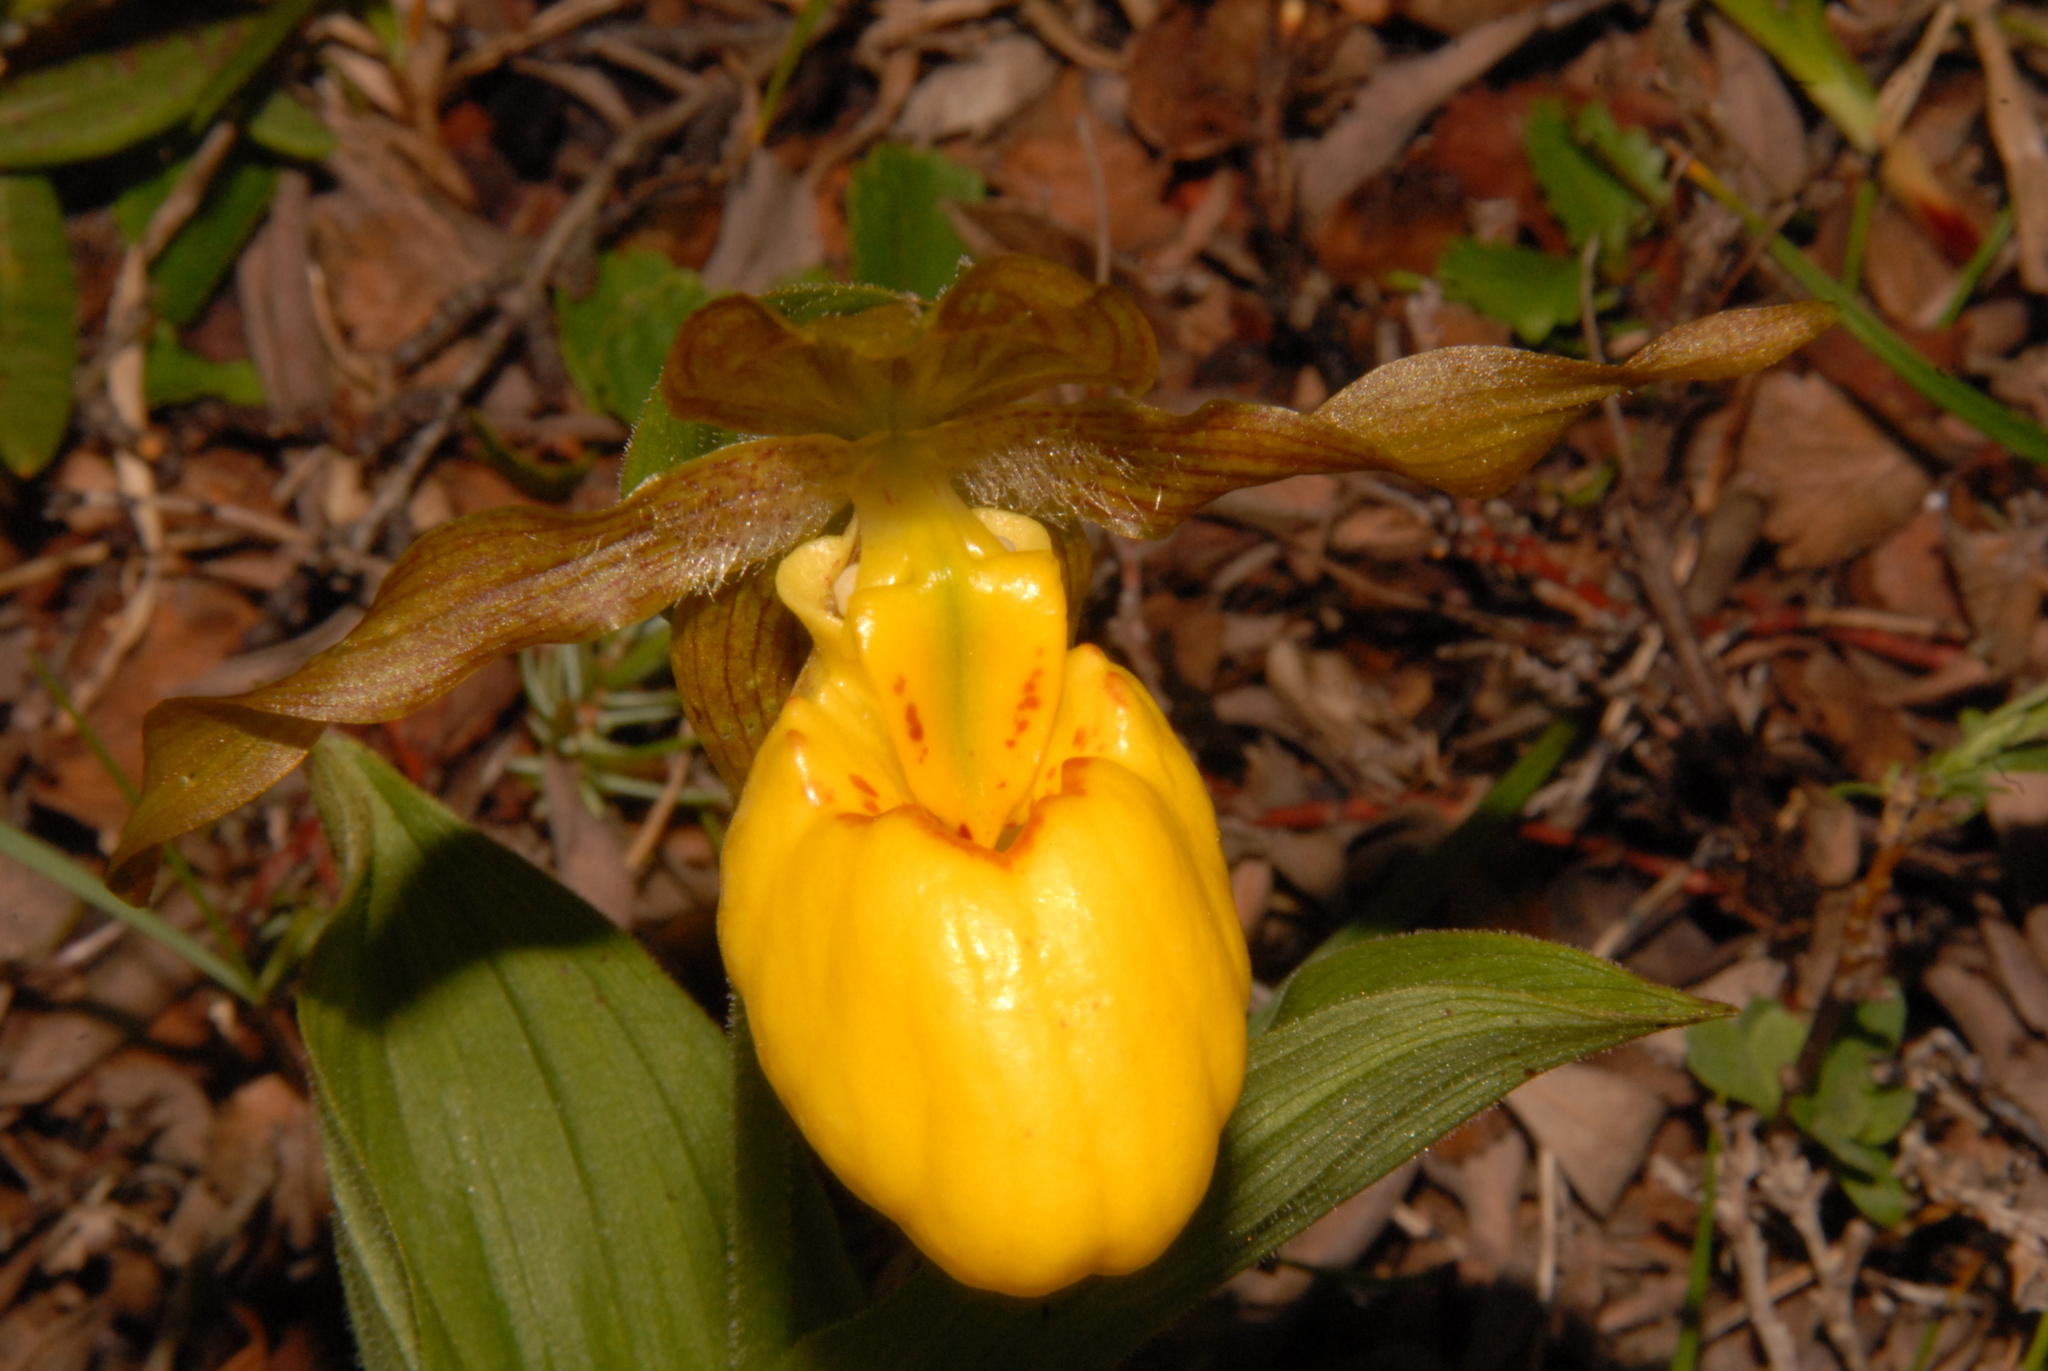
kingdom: Plantae
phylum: Tracheophyta
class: Liliopsida
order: Asparagales
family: Orchidaceae
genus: Cypripedium
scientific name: Cypripedium parviflorum
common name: American yellow lady's-slipper
